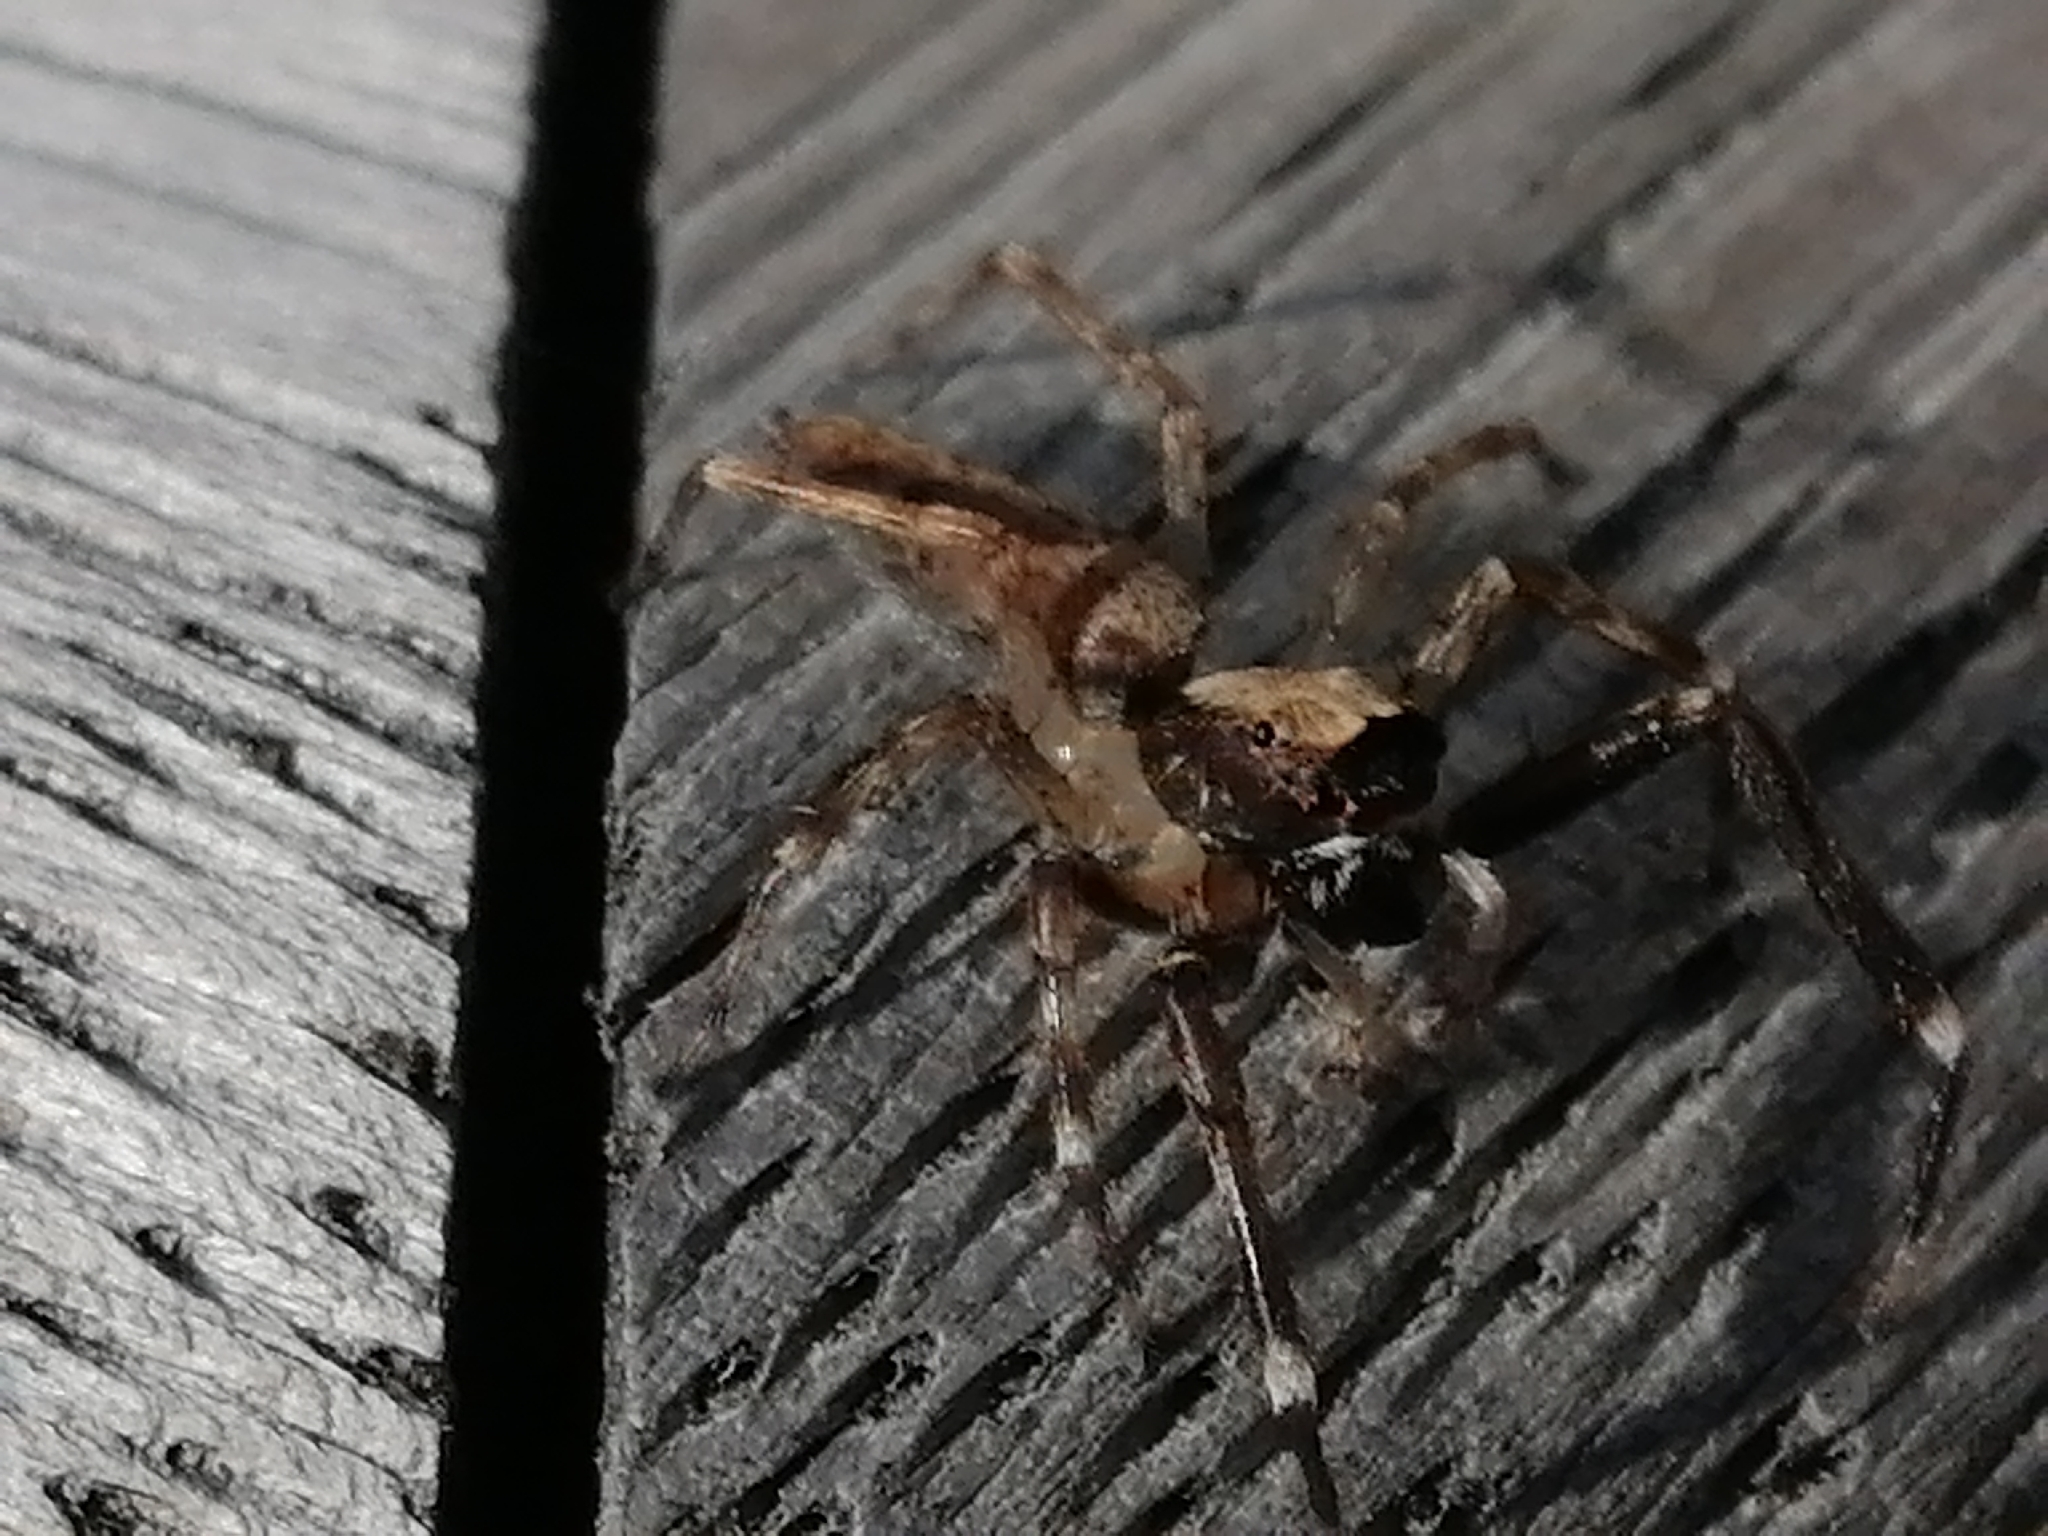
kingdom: Animalia
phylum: Arthropoda
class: Arachnida
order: Araneae
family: Salticidae
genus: Helpis
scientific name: Helpis minitabunda
